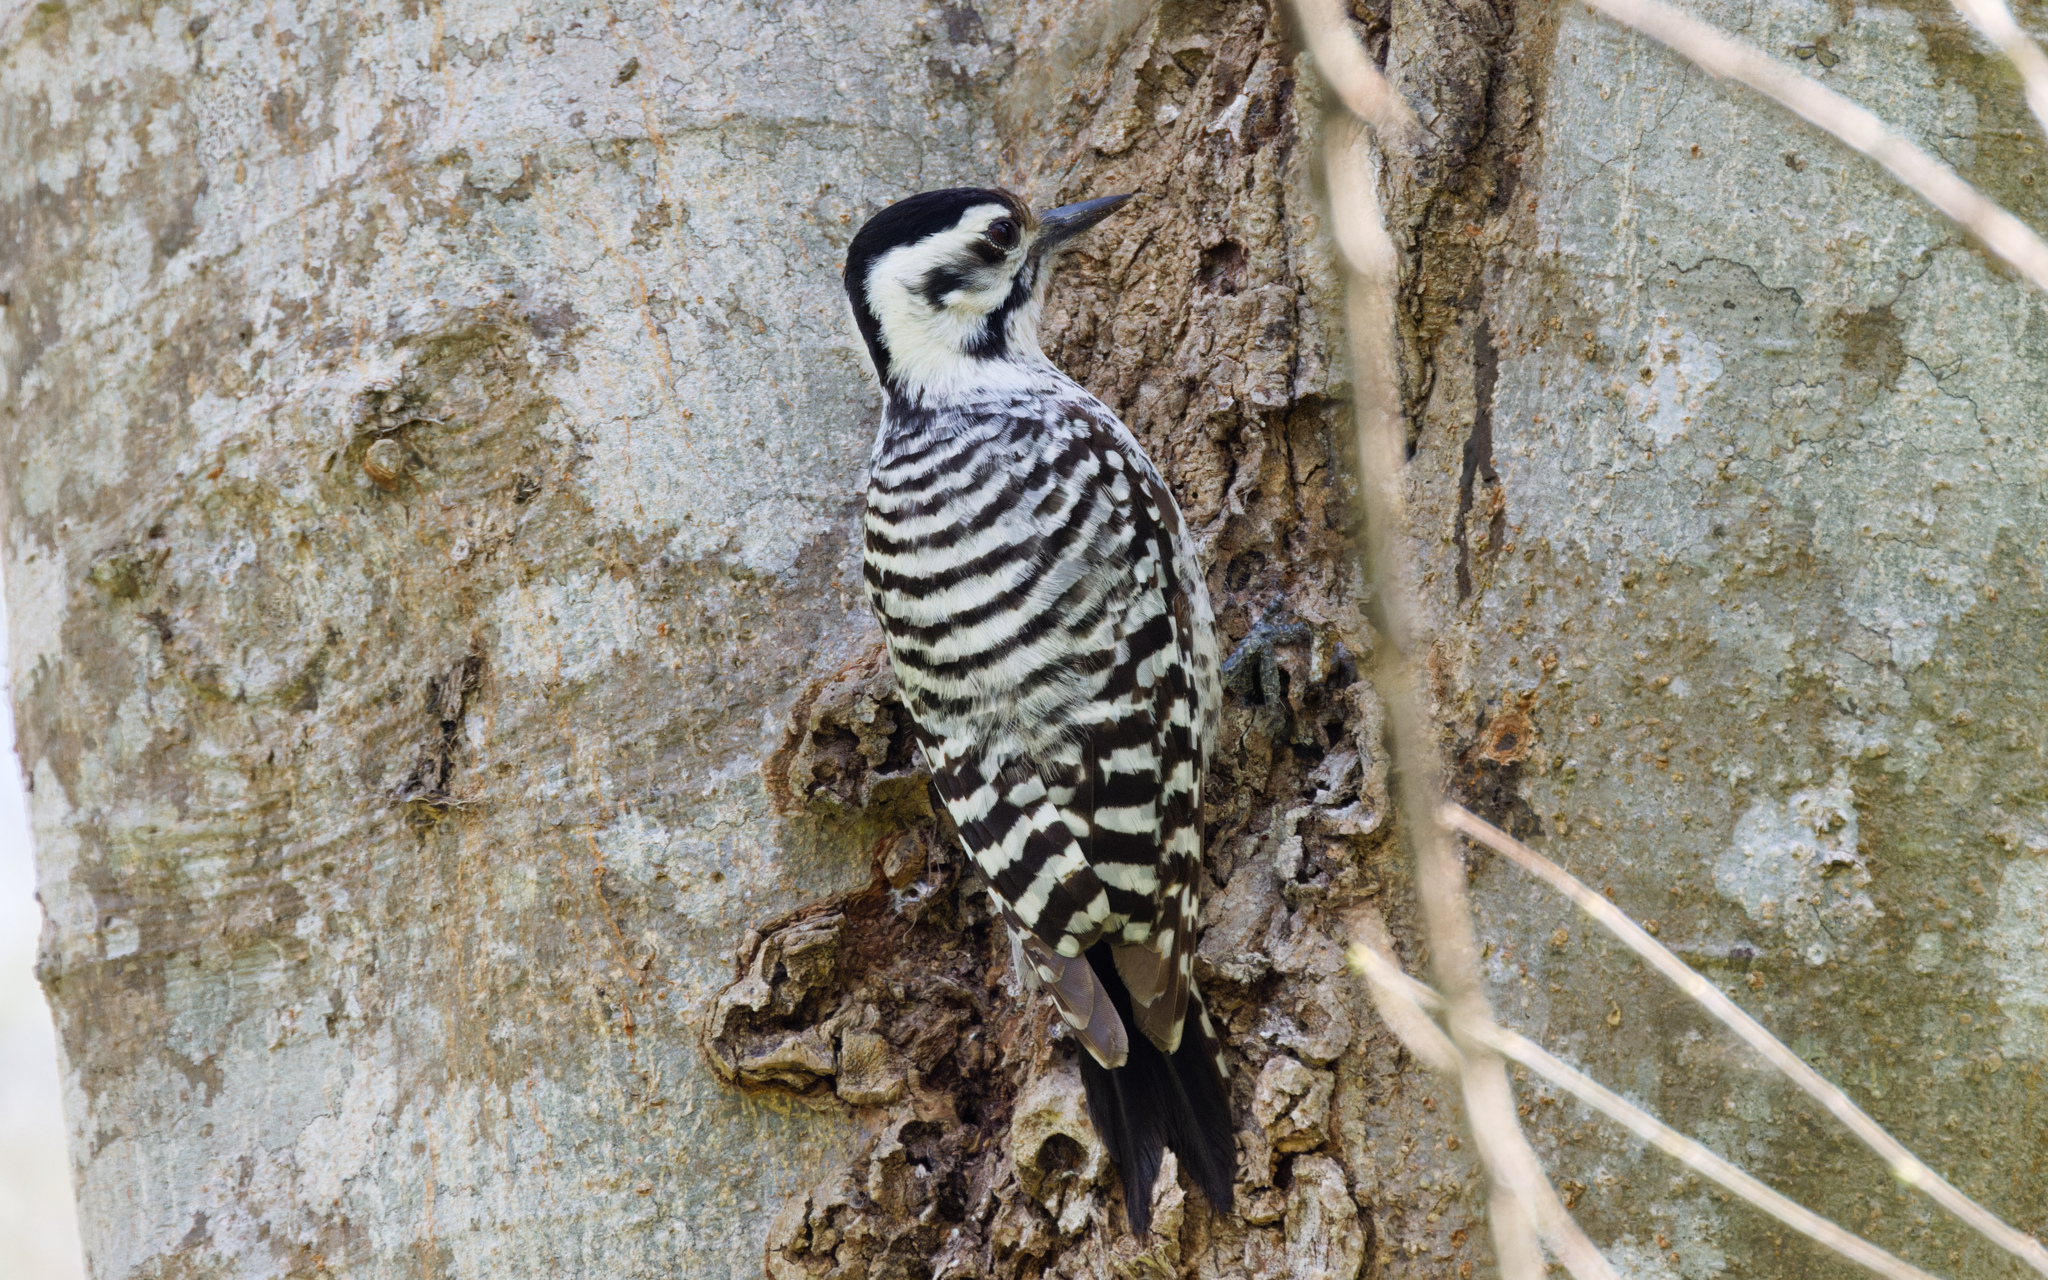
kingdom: Animalia
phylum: Chordata
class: Aves
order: Piciformes
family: Picidae
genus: Dryobates
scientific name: Dryobates scalaris
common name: Ladder-backed woodpecker
